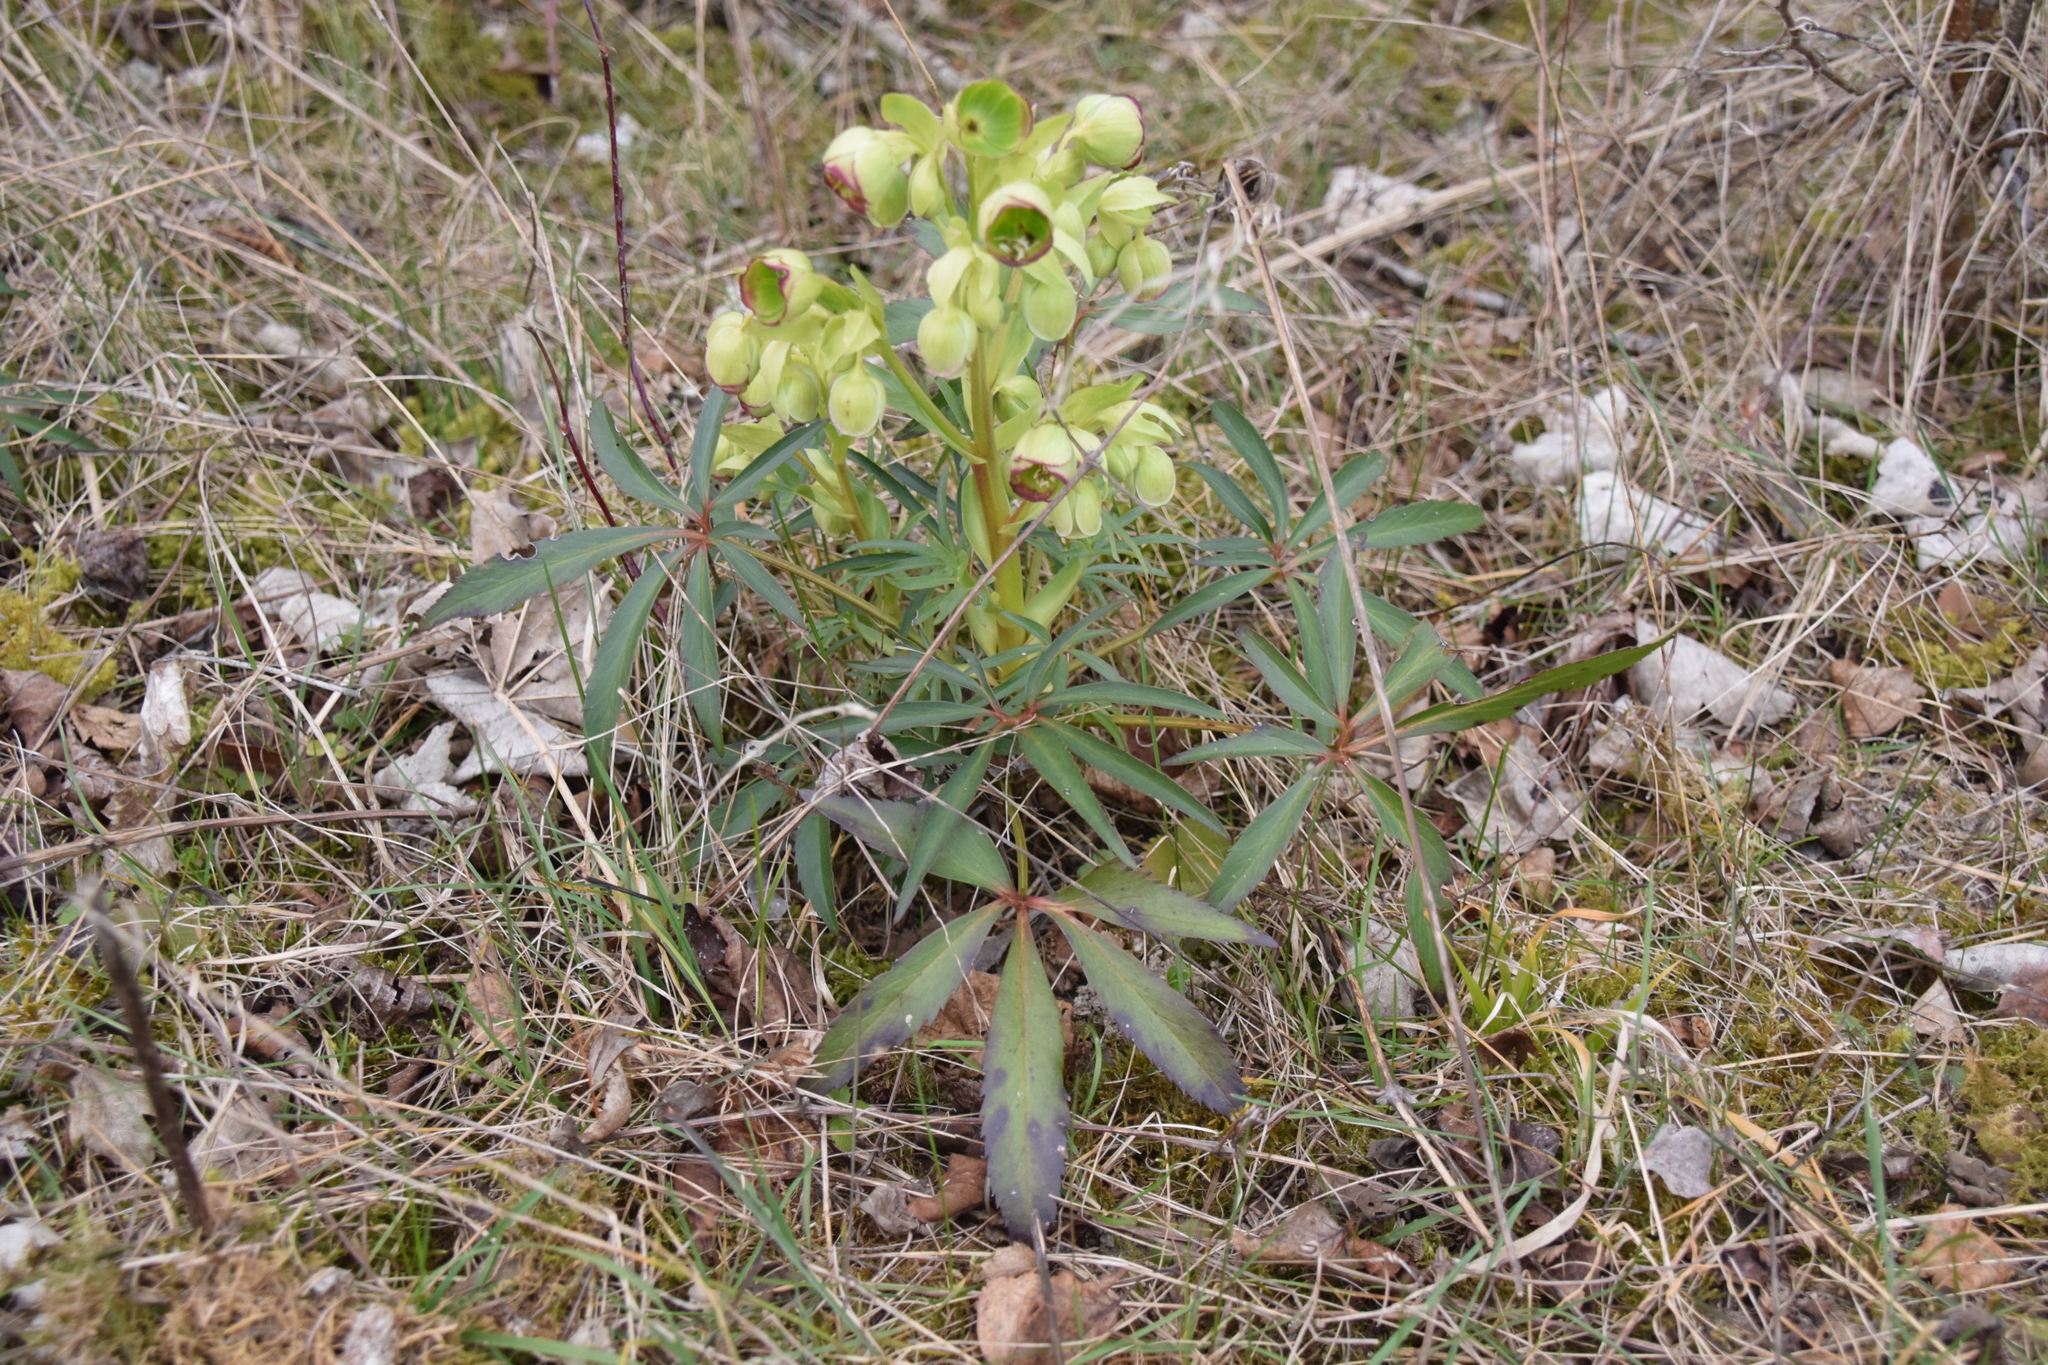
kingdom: Plantae
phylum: Tracheophyta
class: Magnoliopsida
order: Ranunculales
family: Ranunculaceae
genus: Helleborus
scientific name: Helleborus foetidus
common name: Stinking hellebore
